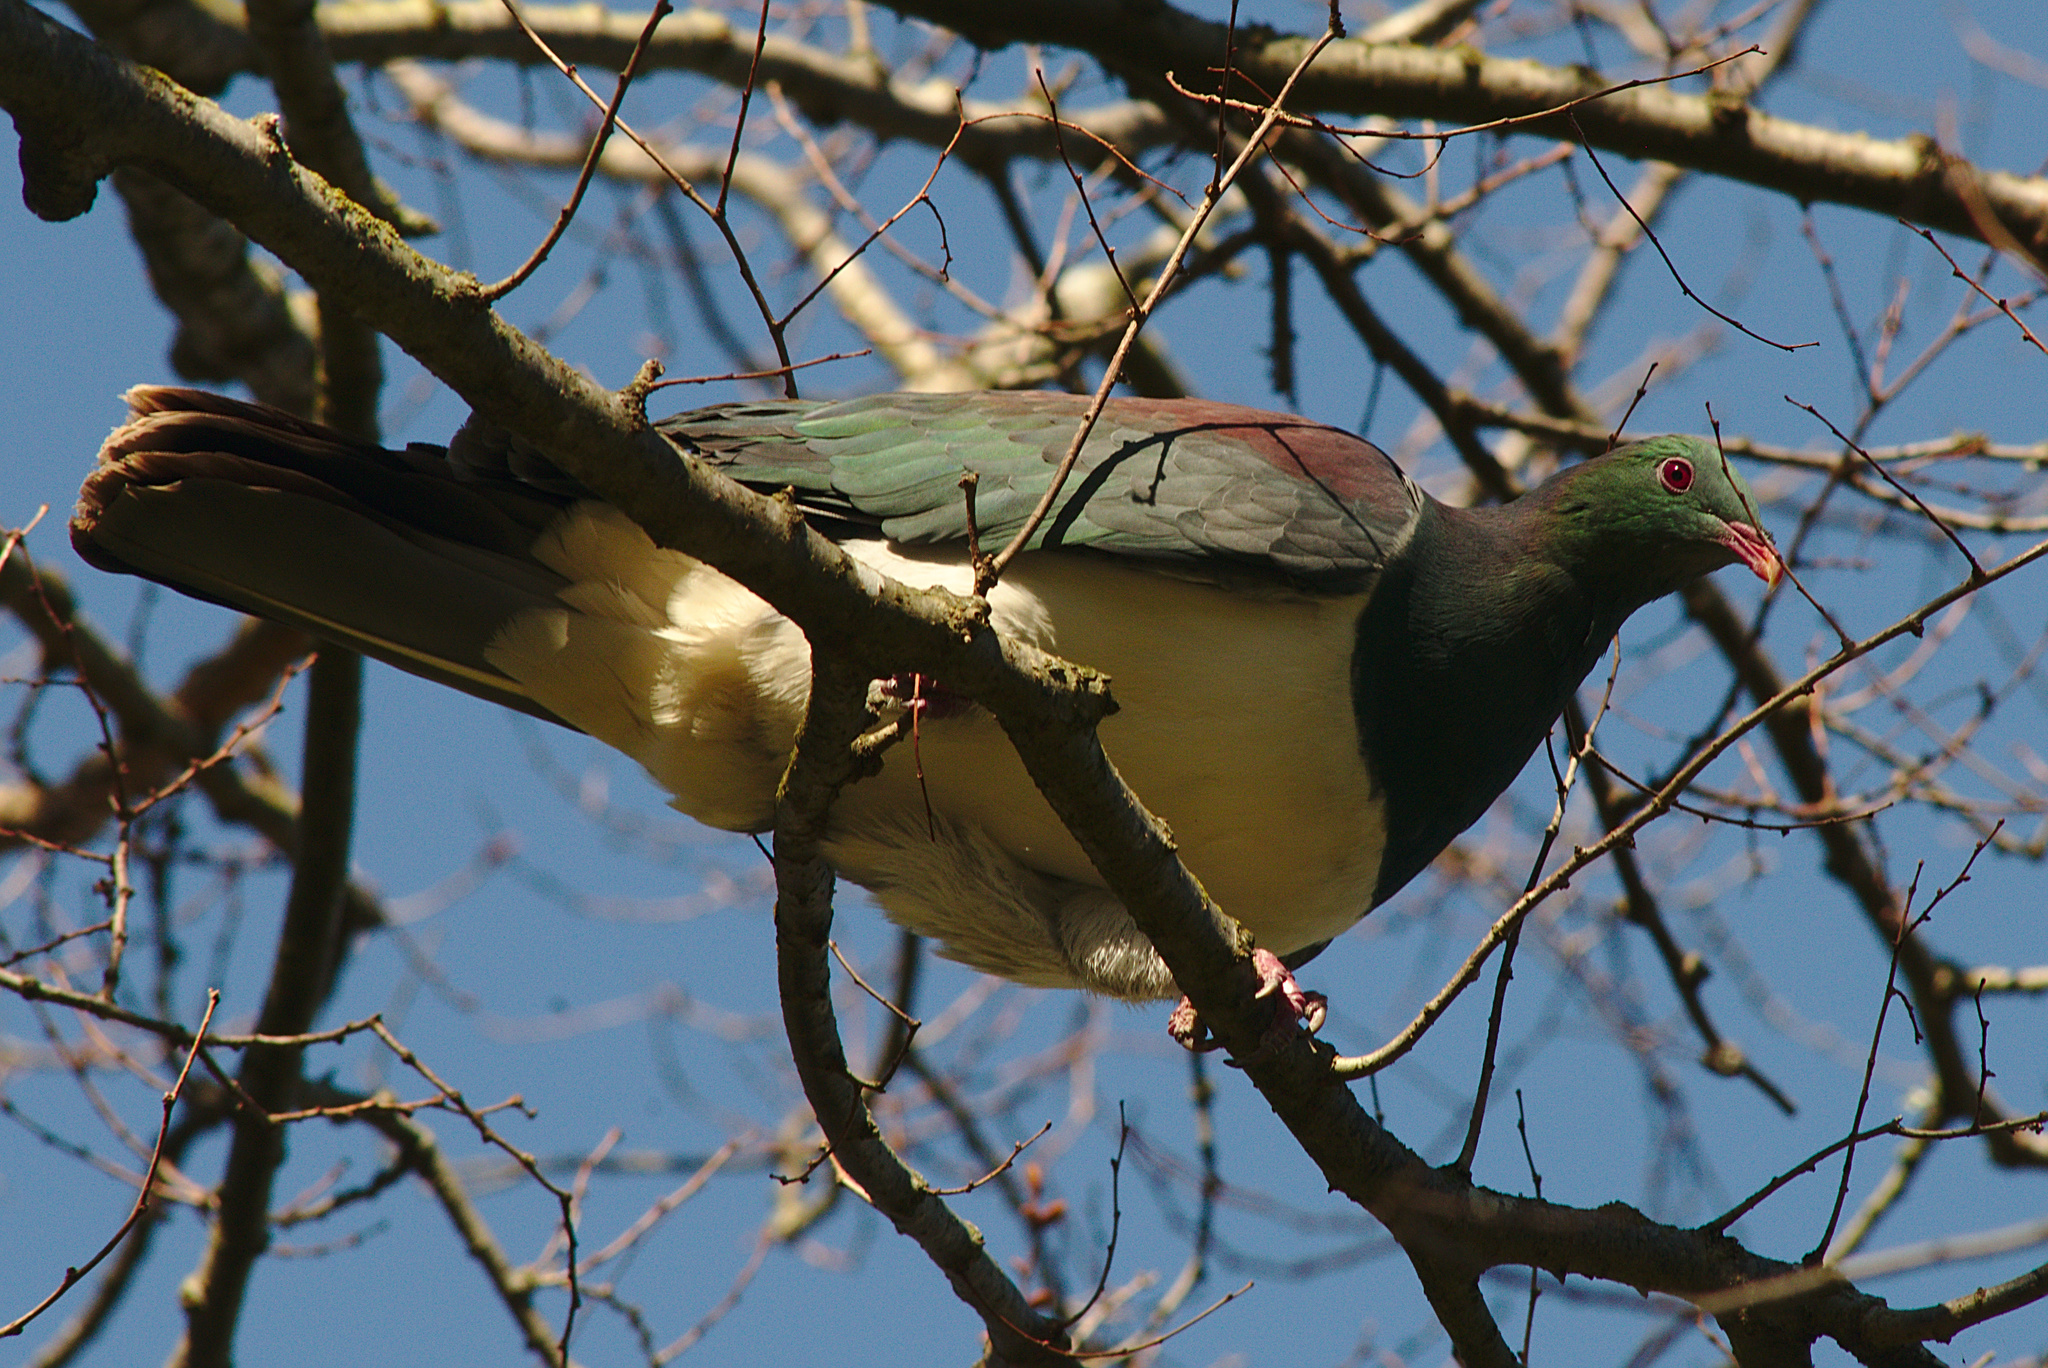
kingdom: Animalia
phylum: Chordata
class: Aves
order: Columbiformes
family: Columbidae
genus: Hemiphaga
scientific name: Hemiphaga novaeseelandiae
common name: New zealand pigeon
